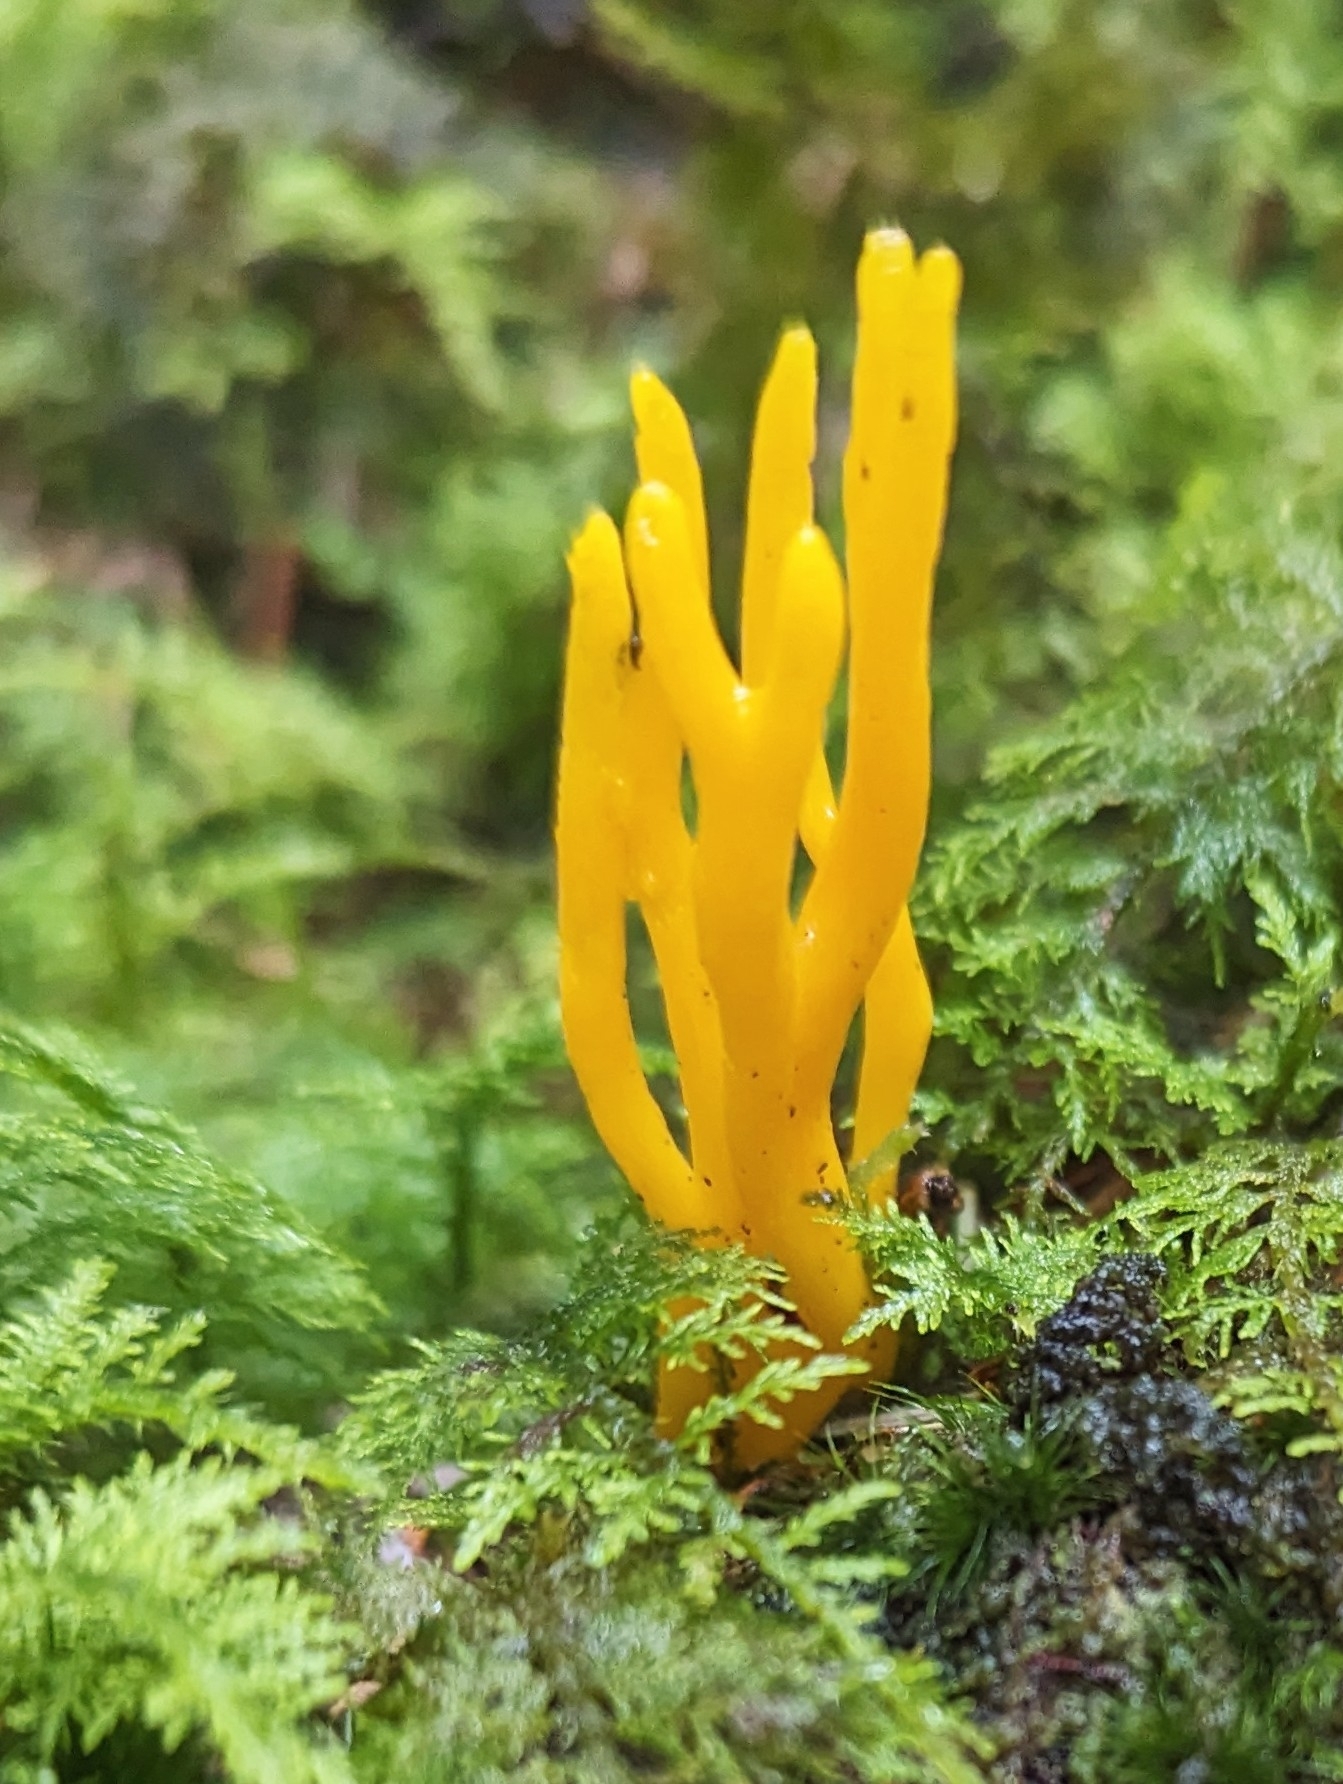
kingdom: Fungi
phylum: Basidiomycota
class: Dacrymycetes
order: Dacrymycetales
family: Dacrymycetaceae
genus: Calocera
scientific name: Calocera viscosa
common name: Yellow stagshorn
